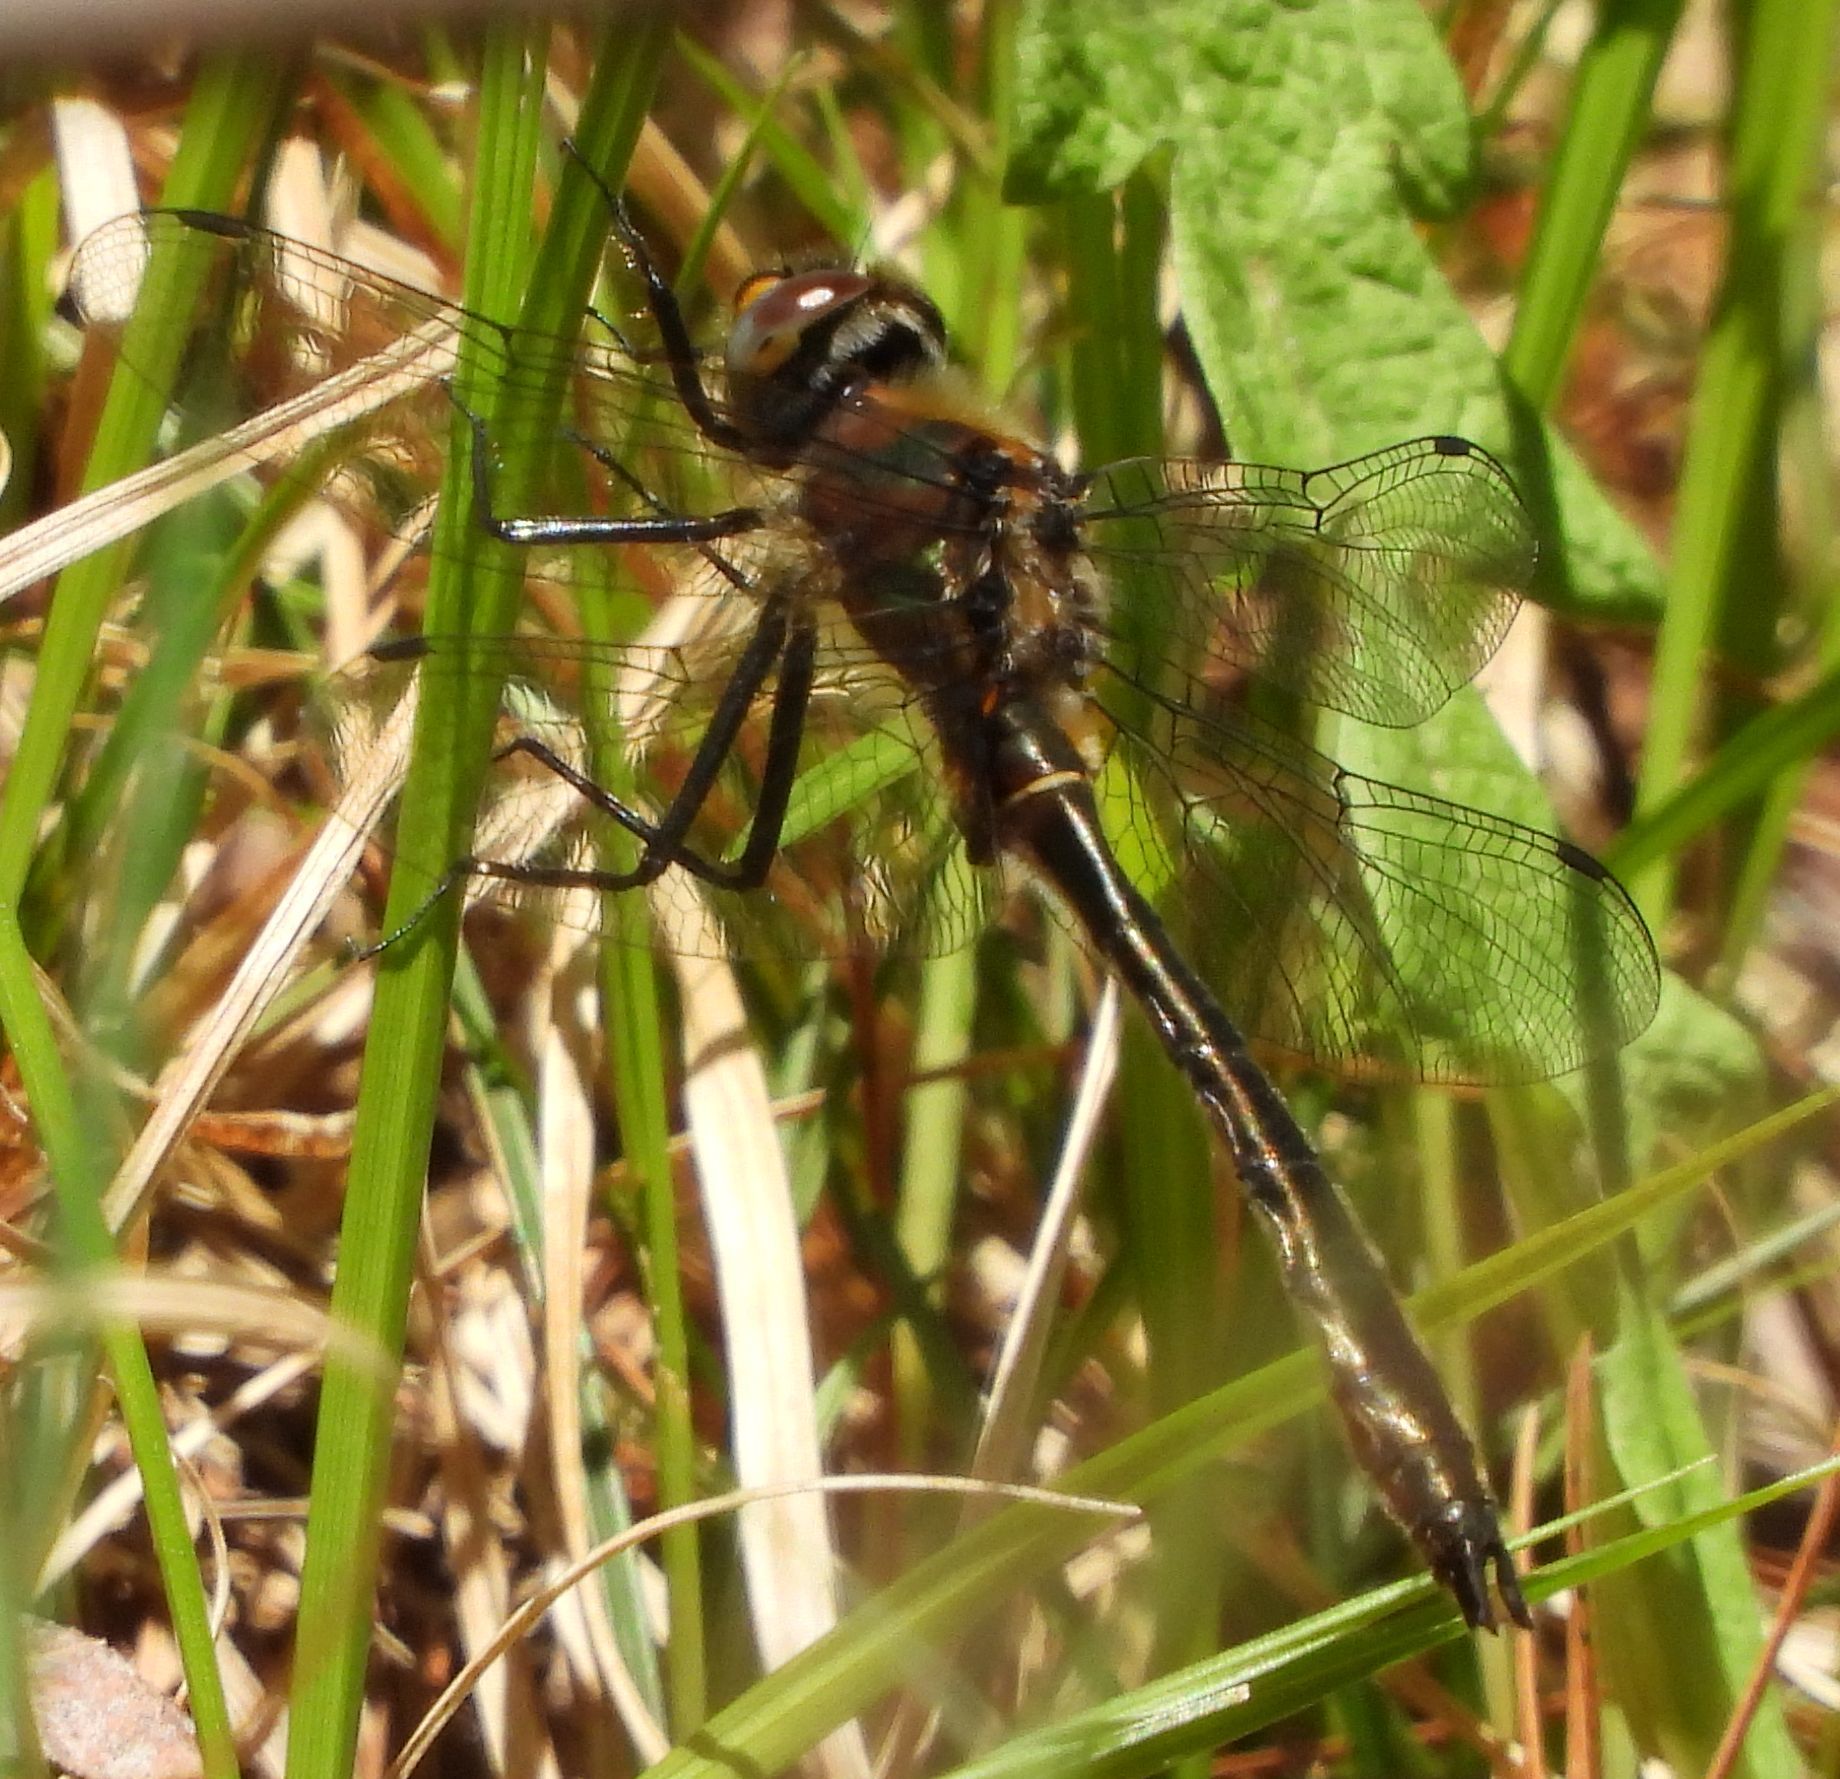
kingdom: Animalia
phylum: Arthropoda
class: Insecta
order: Odonata
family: Corduliidae
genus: Cordulia
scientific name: Cordulia shurtleffii
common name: American emerald
